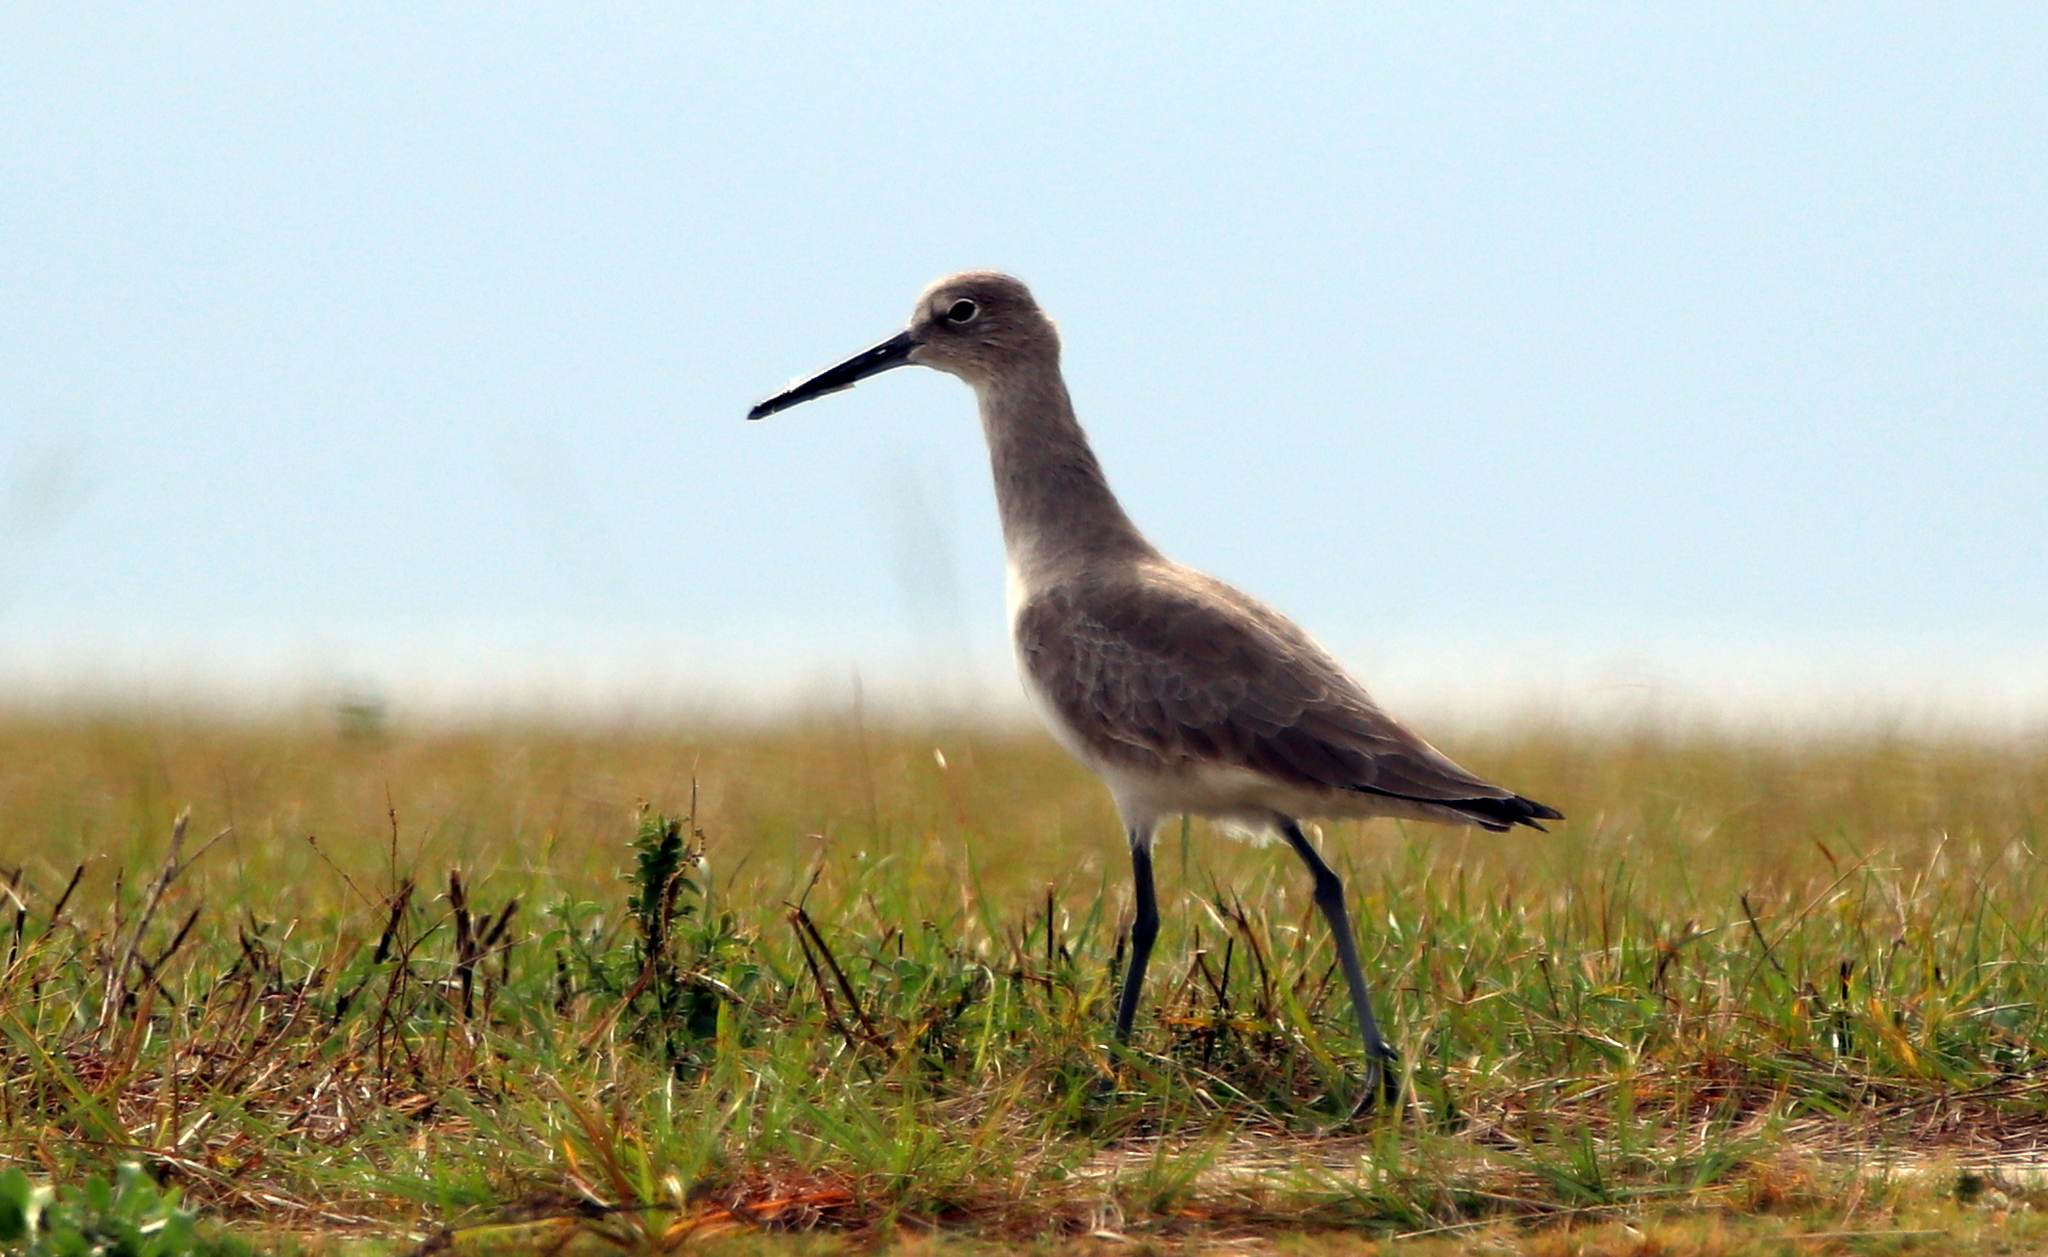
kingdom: Animalia
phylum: Chordata
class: Aves
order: Charadriiformes
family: Scolopacidae
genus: Tringa
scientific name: Tringa semipalmata
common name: Willet
